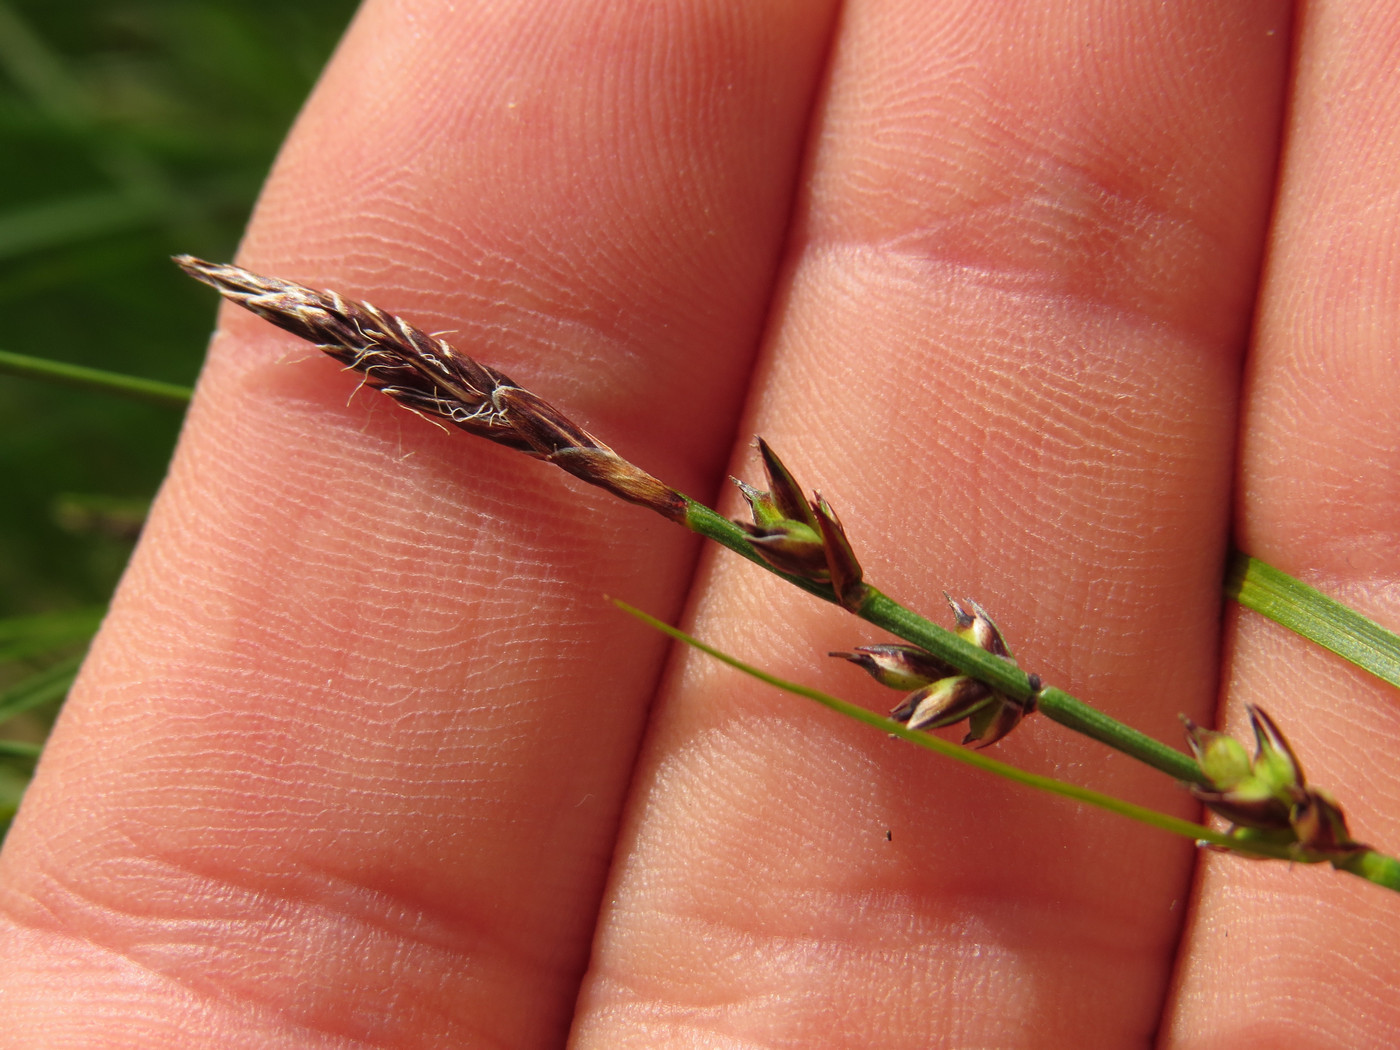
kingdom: Plantae
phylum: Tracheophyta
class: Liliopsida
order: Poales
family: Cyperaceae
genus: Carex
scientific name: Carex pensylvanica
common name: Common oak sedge
